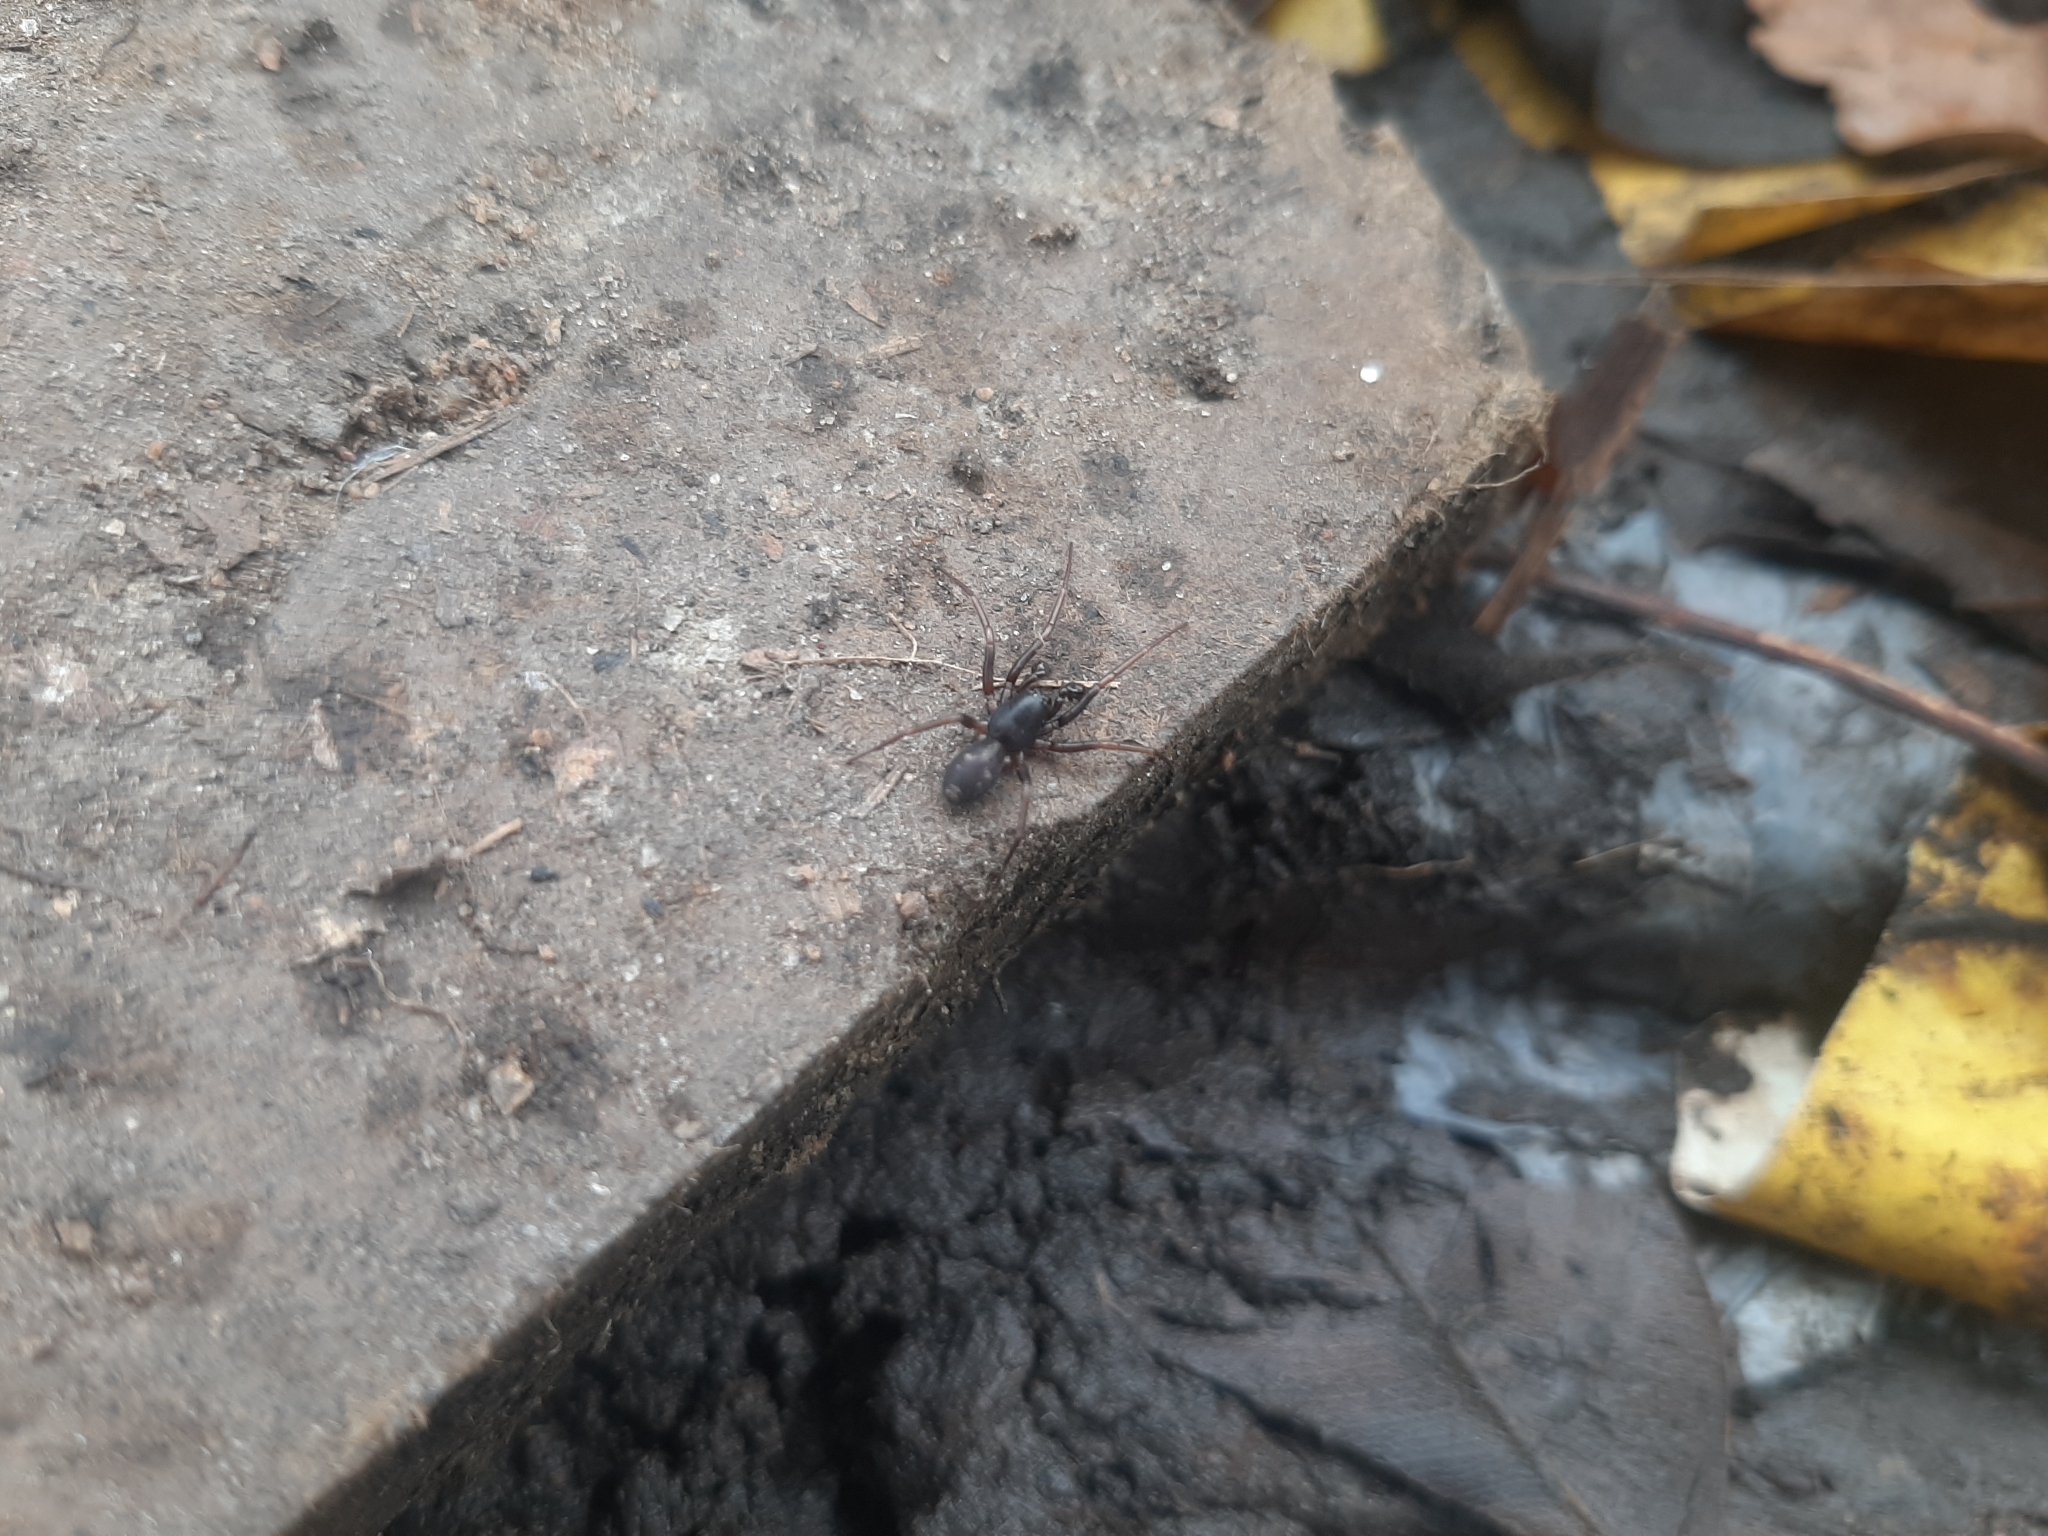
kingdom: Animalia
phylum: Arthropoda
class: Arachnida
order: Araneae
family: Corinnidae
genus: Falconina
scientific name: Falconina gracilis
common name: Antmimic spider
